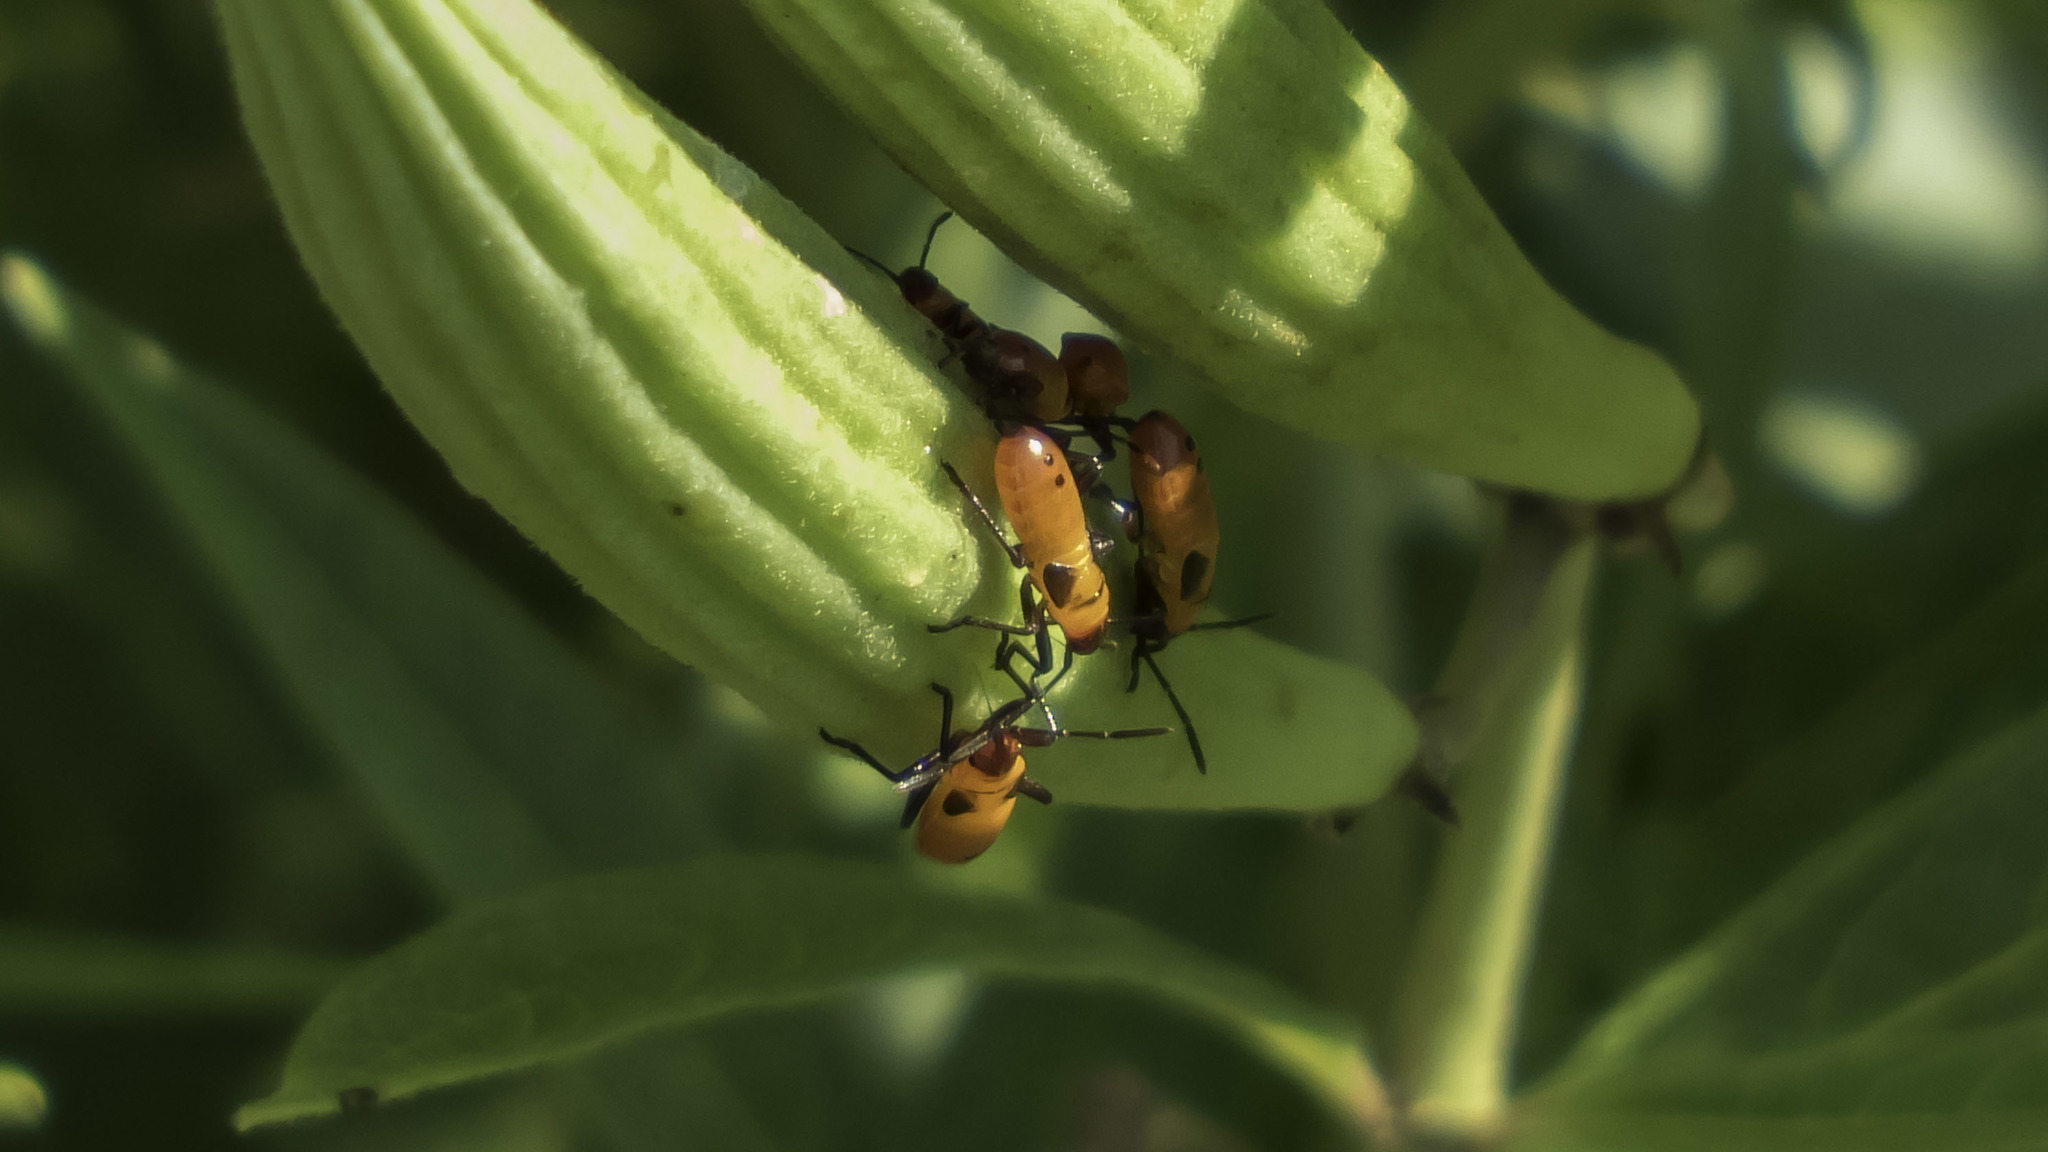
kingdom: Animalia
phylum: Arthropoda
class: Insecta
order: Hemiptera
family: Lygaeidae
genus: Oncopeltus
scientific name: Oncopeltus fasciatus
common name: Large milkweed bug
